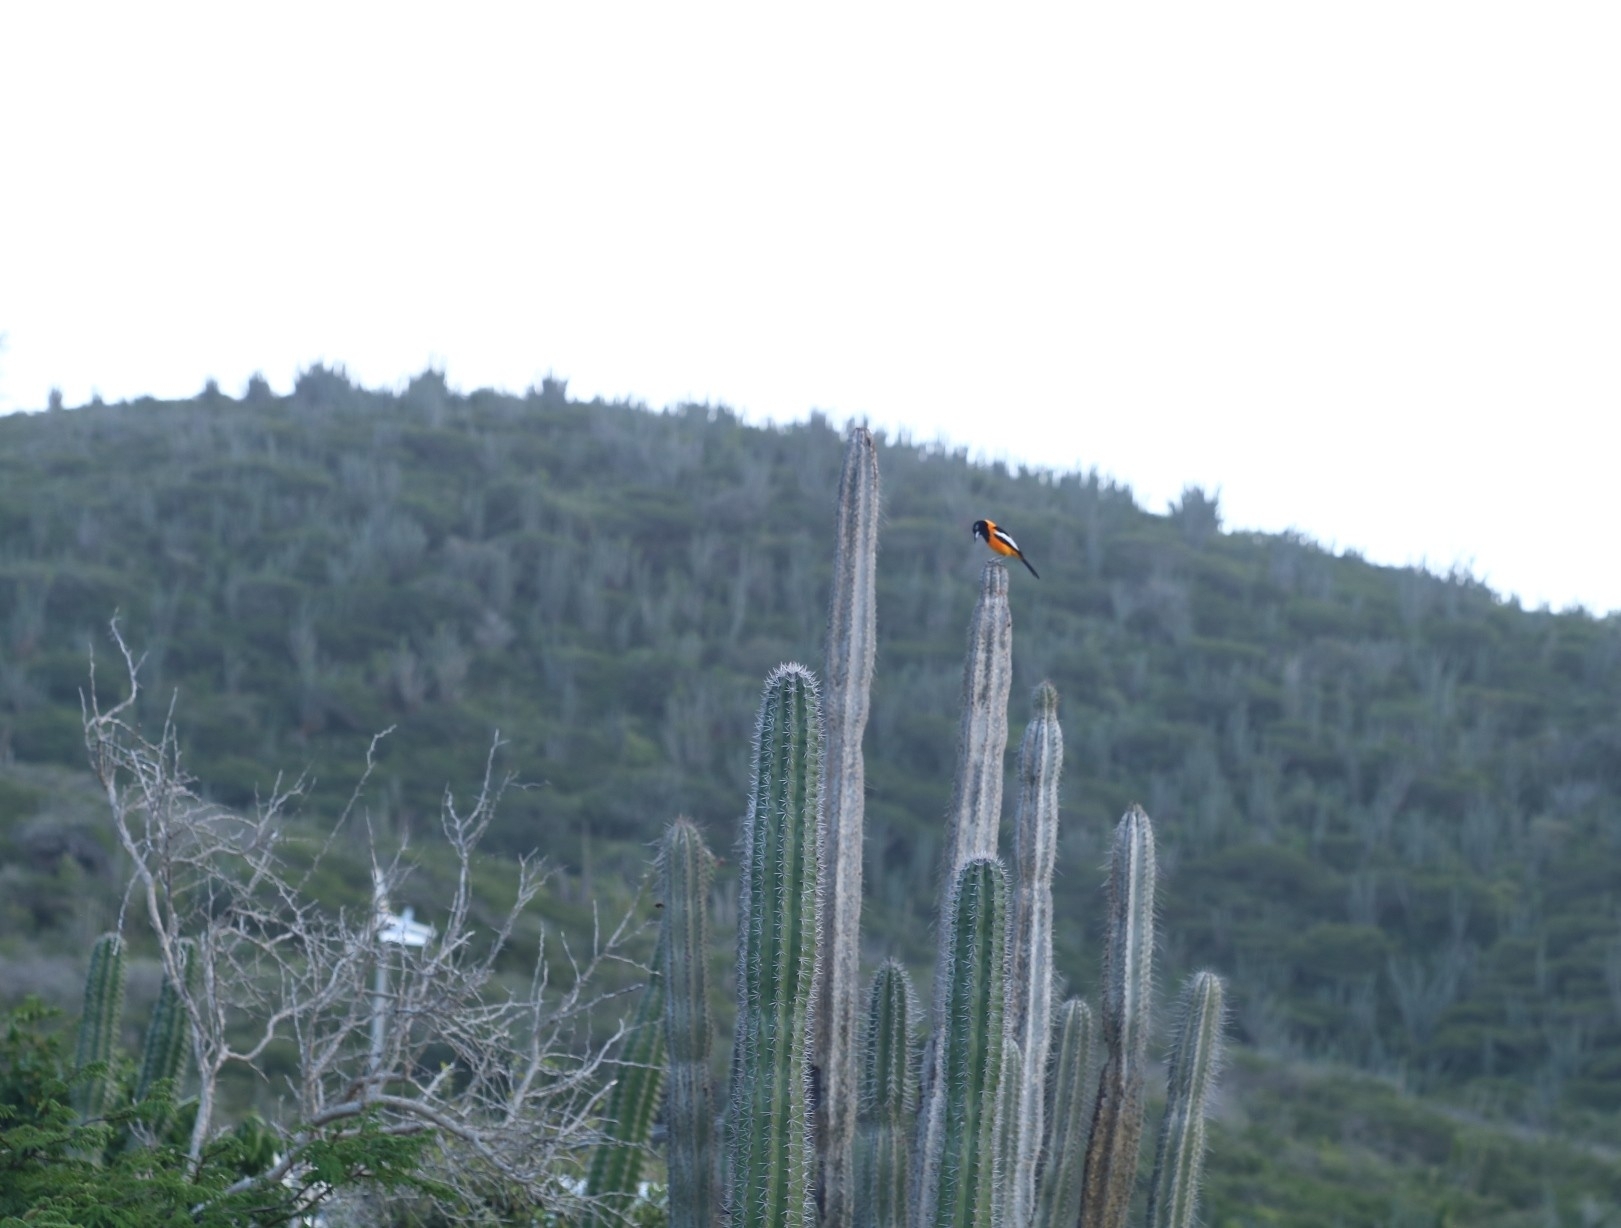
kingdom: Animalia
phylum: Chordata
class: Aves
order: Passeriformes
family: Icteridae
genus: Icterus
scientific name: Icterus icterus
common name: Venezuelan troupial
